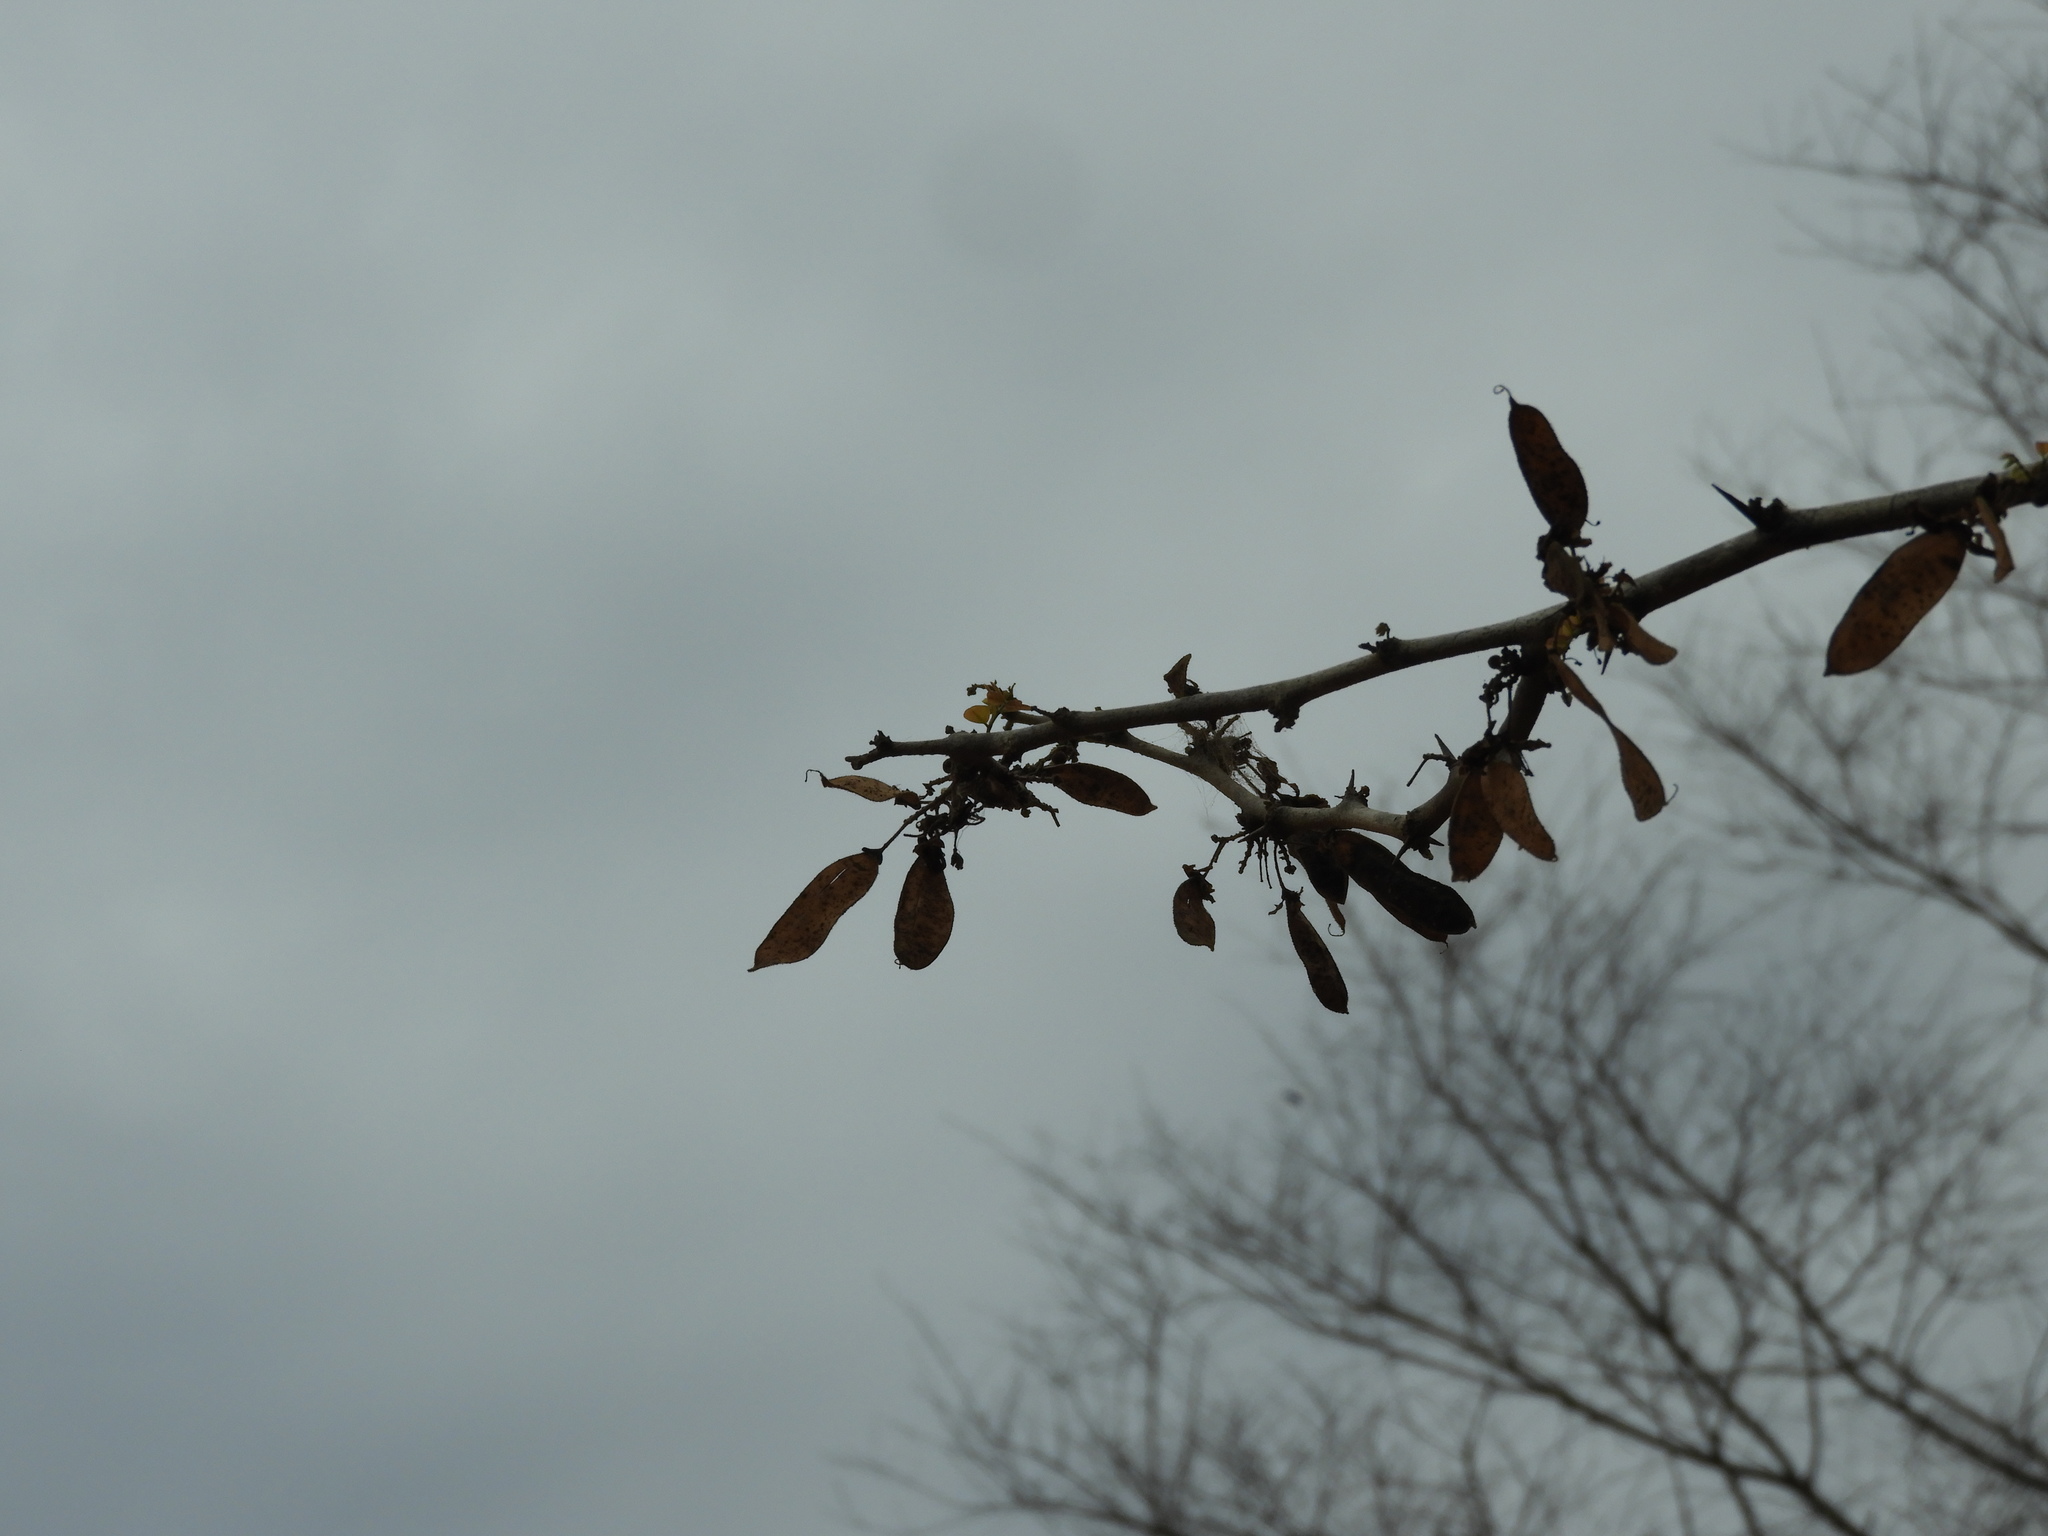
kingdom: Plantae
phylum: Tracheophyta
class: Magnoliopsida
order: Fabales
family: Fabaceae
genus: Haematoxylum
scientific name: Haematoxylum brasiletto
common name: Peachwood
